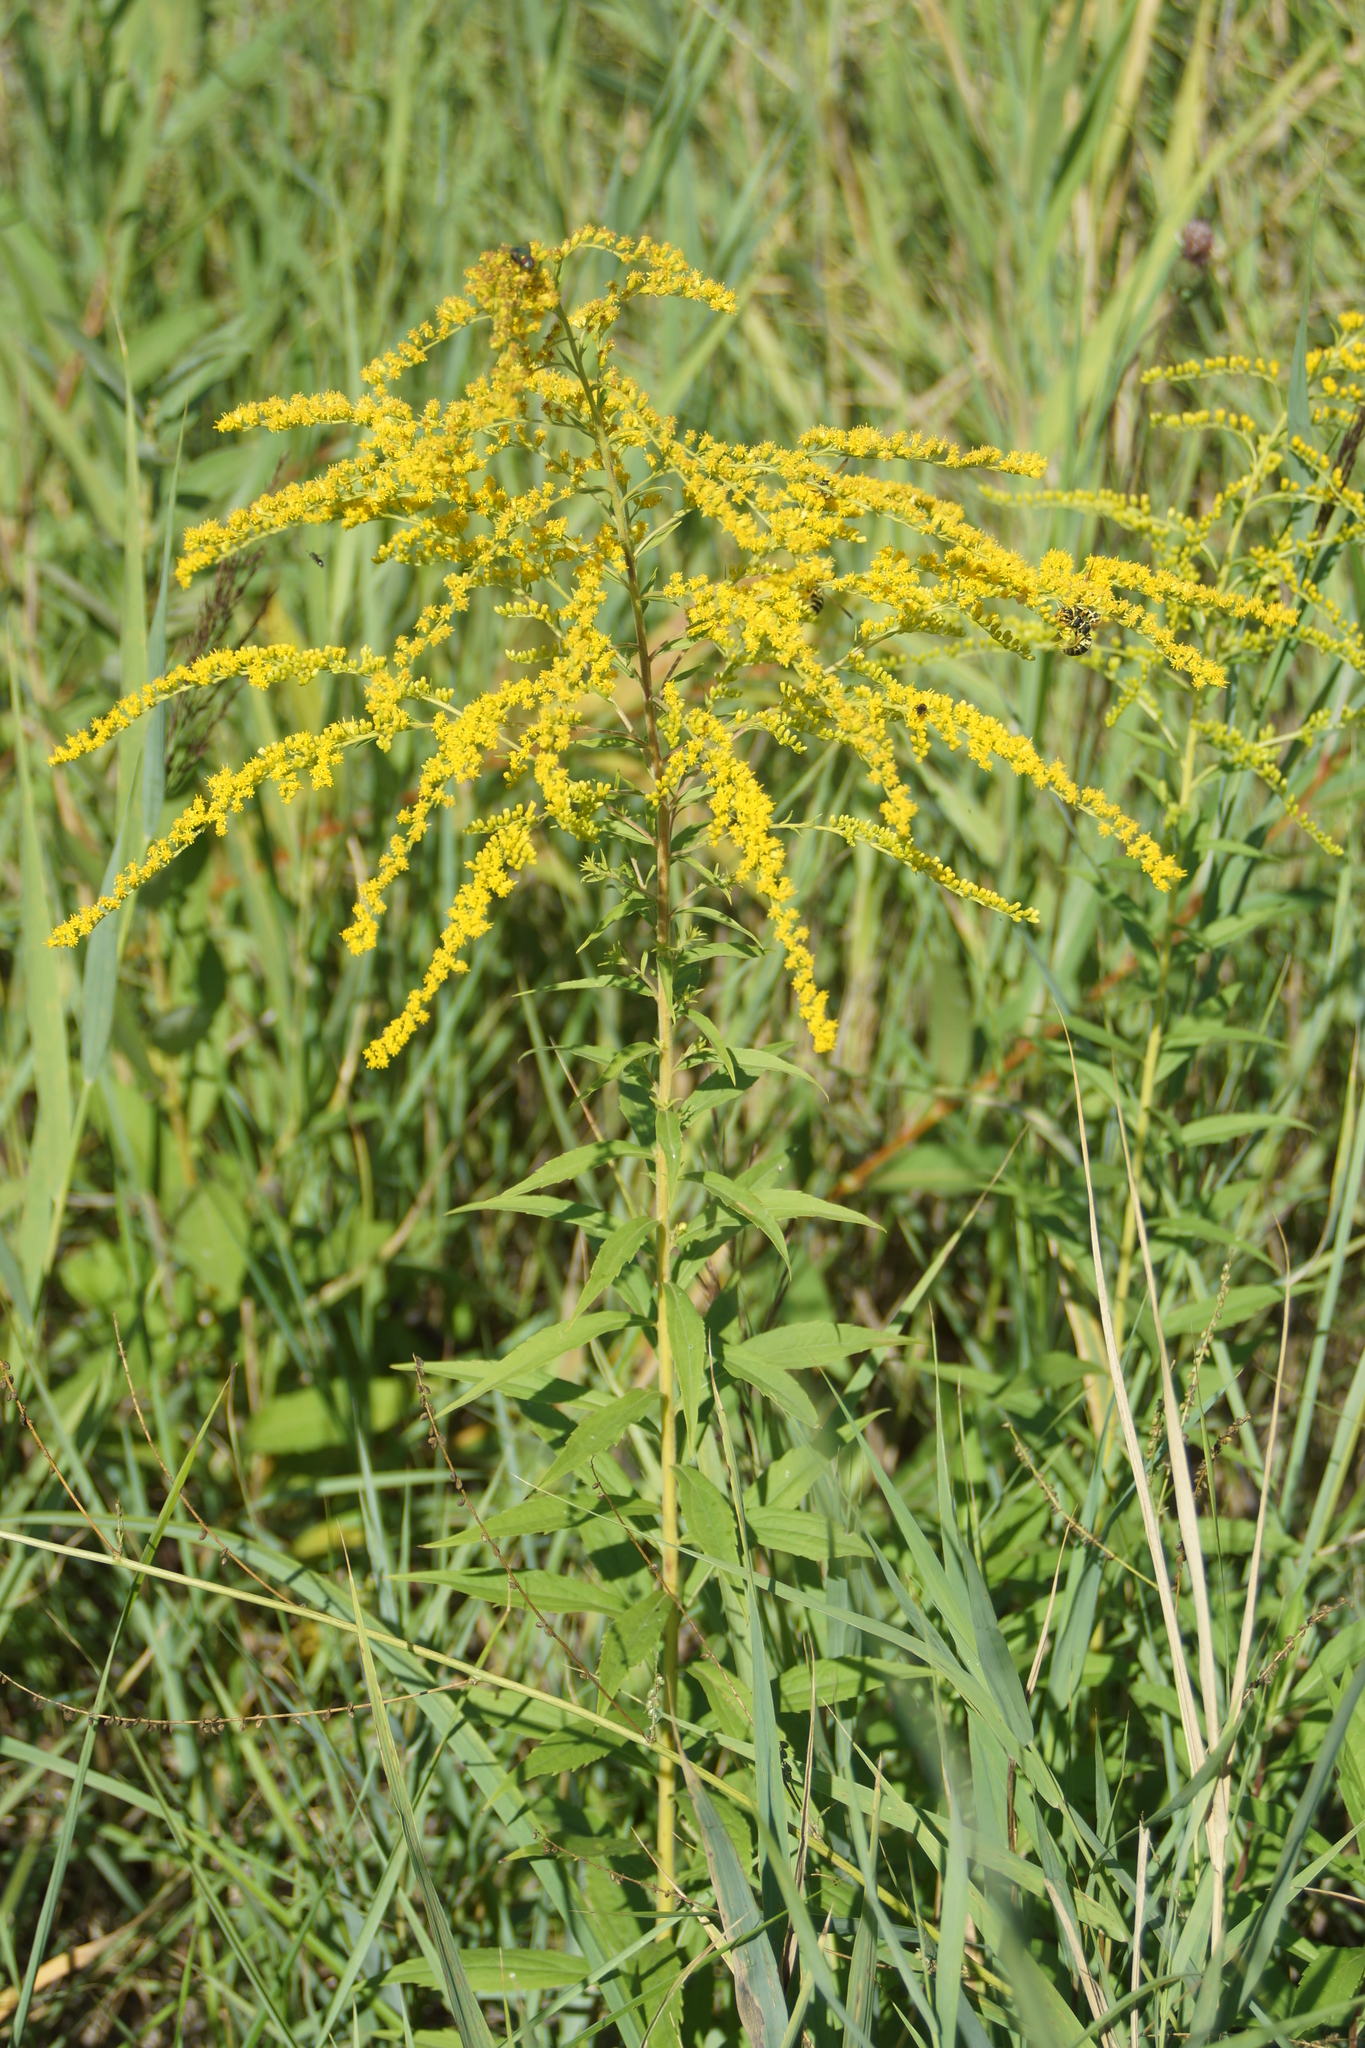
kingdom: Plantae
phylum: Tracheophyta
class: Magnoliopsida
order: Asterales
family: Asteraceae
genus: Solidago
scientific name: Solidago canadensis
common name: Canada goldenrod
